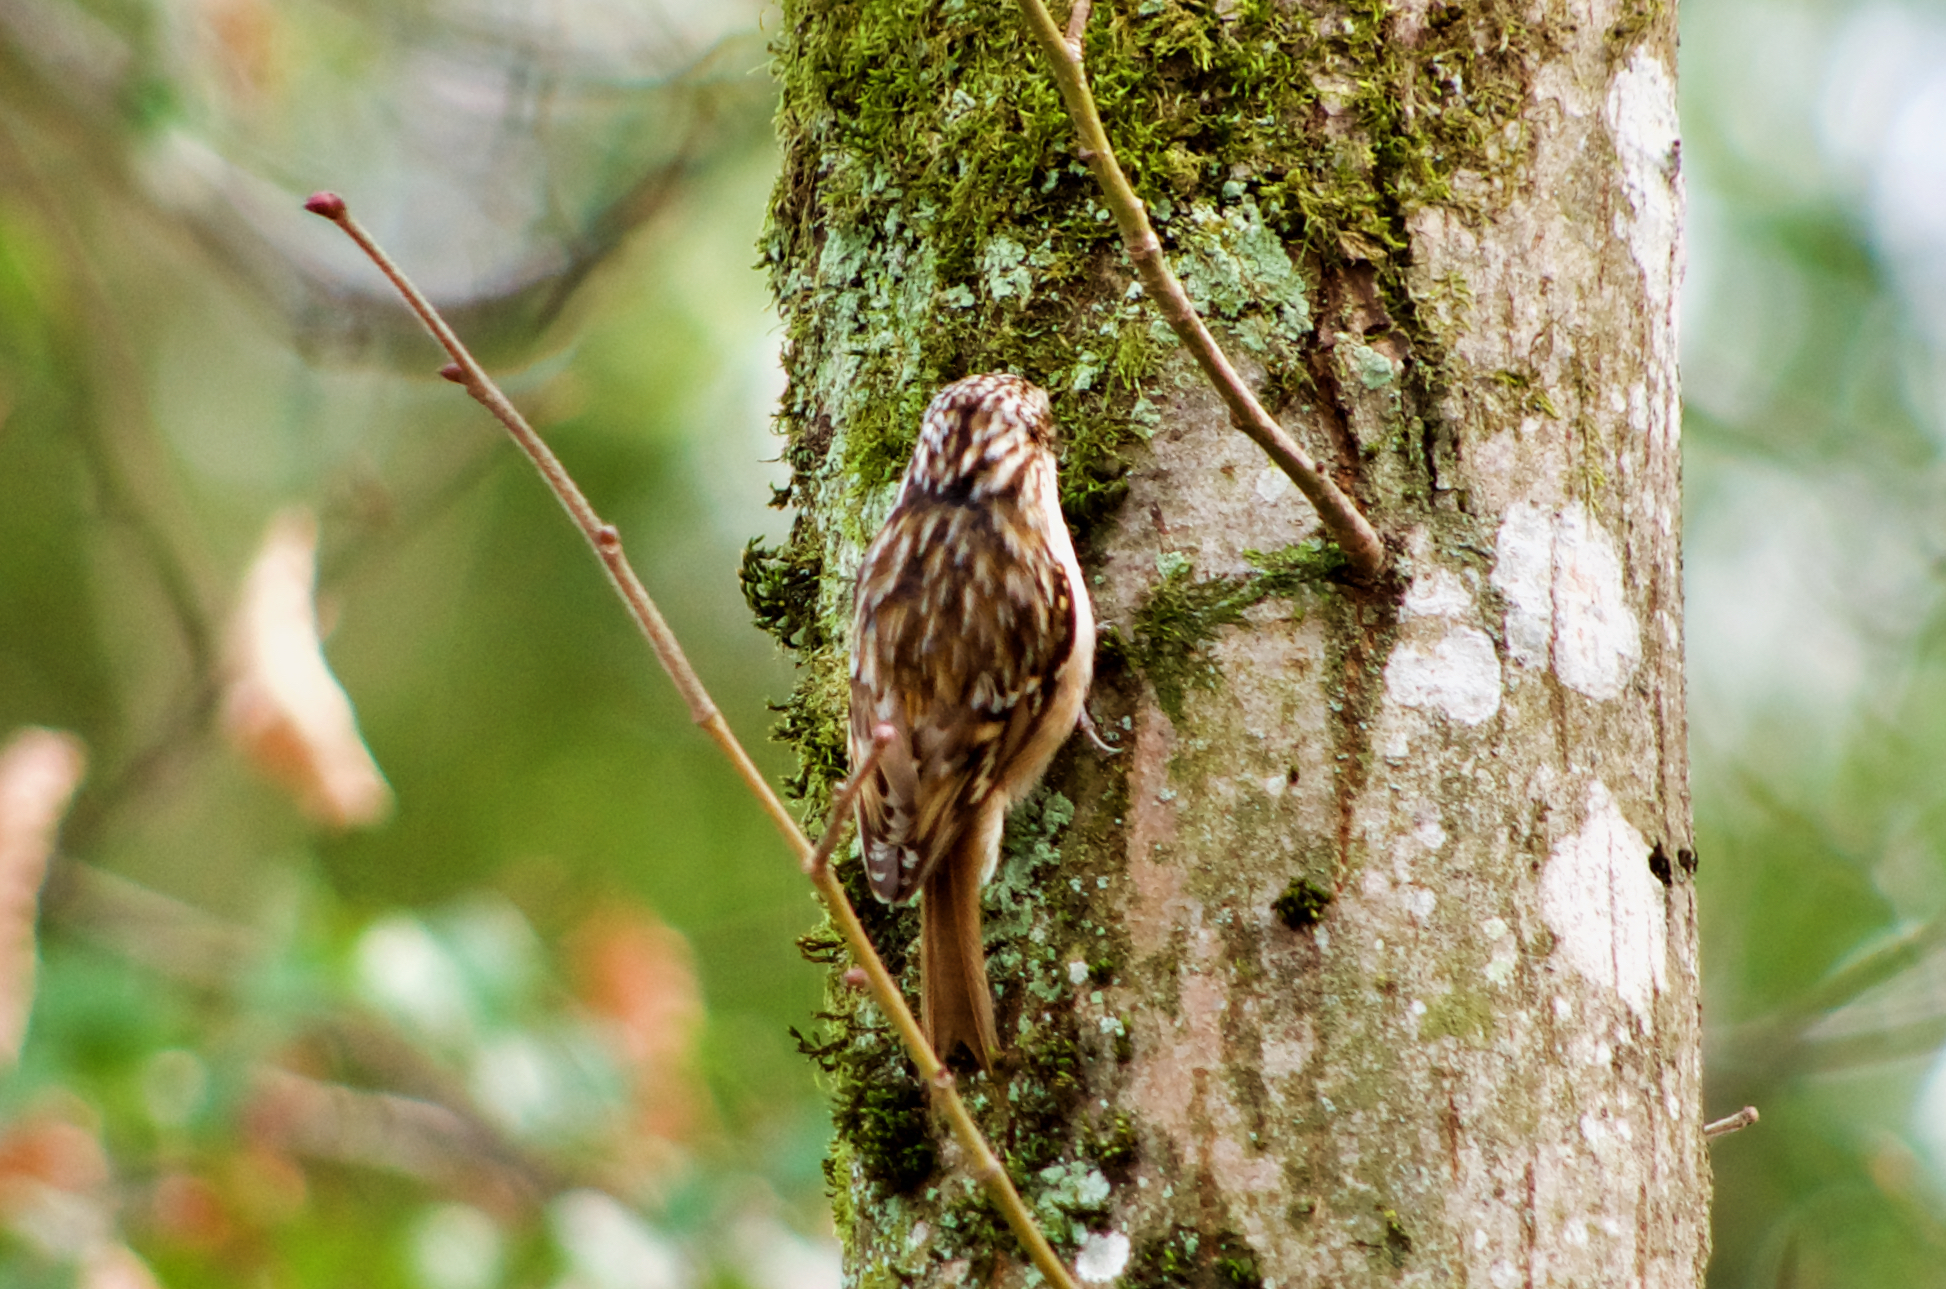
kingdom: Animalia
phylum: Chordata
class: Aves
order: Passeriformes
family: Certhiidae
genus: Certhia
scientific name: Certhia brachydactyla
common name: Short-toed treecreeper
